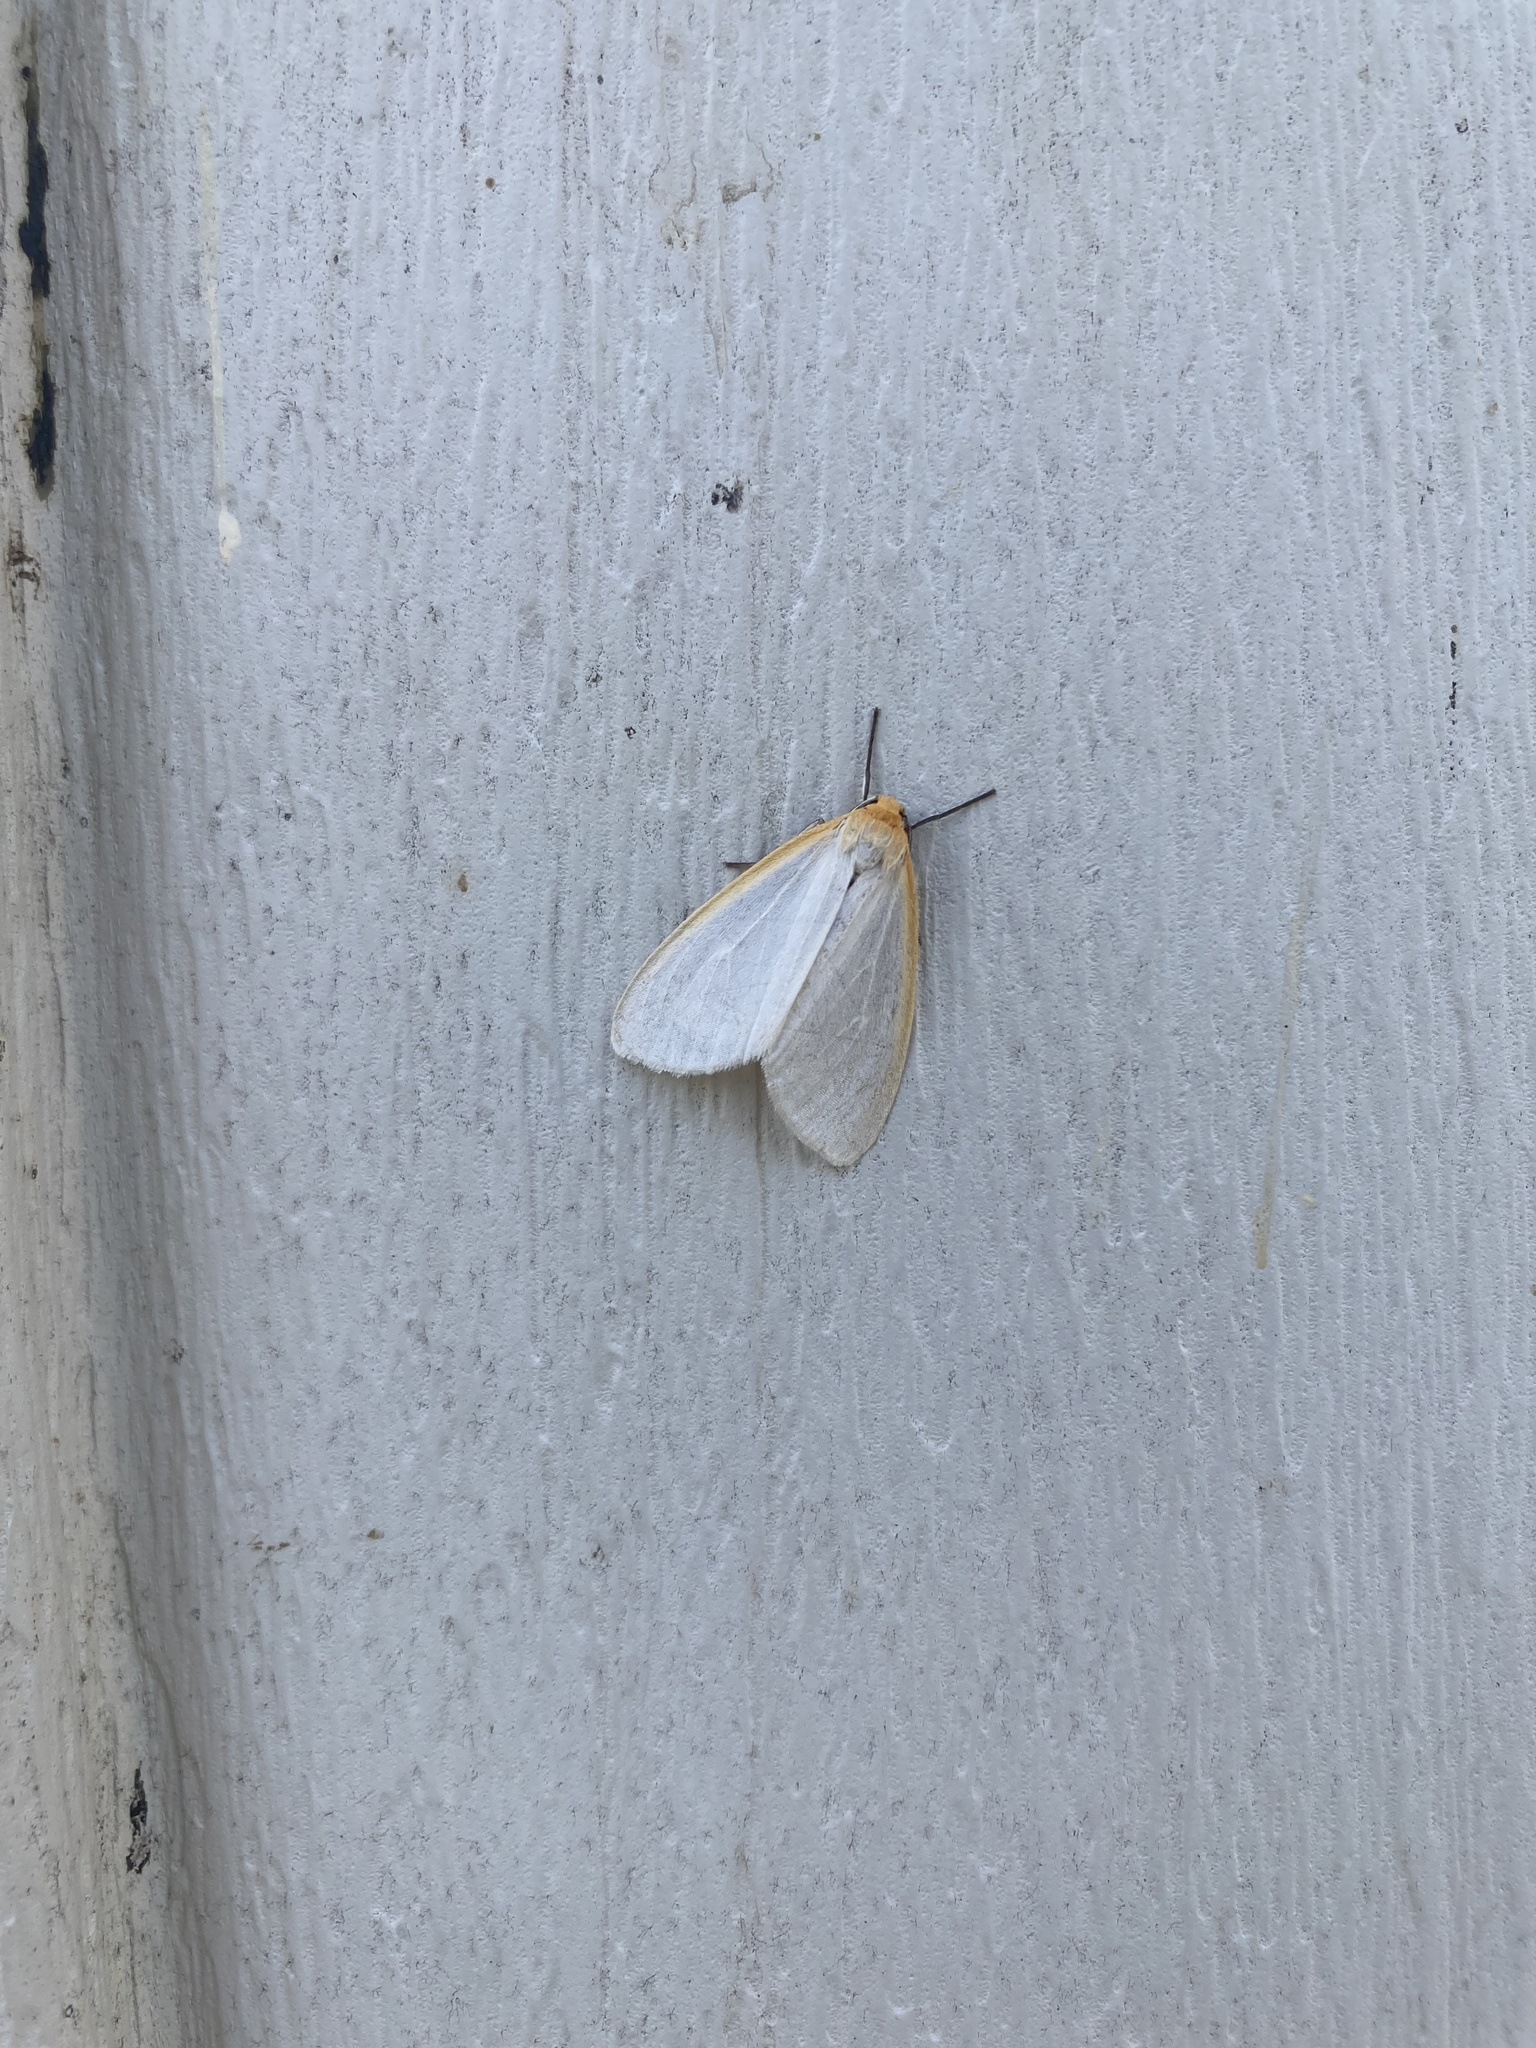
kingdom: Animalia
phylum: Arthropoda
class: Insecta
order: Lepidoptera
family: Erebidae
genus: Cycnia
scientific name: Cycnia tenera
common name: Delicate cycnia moth
